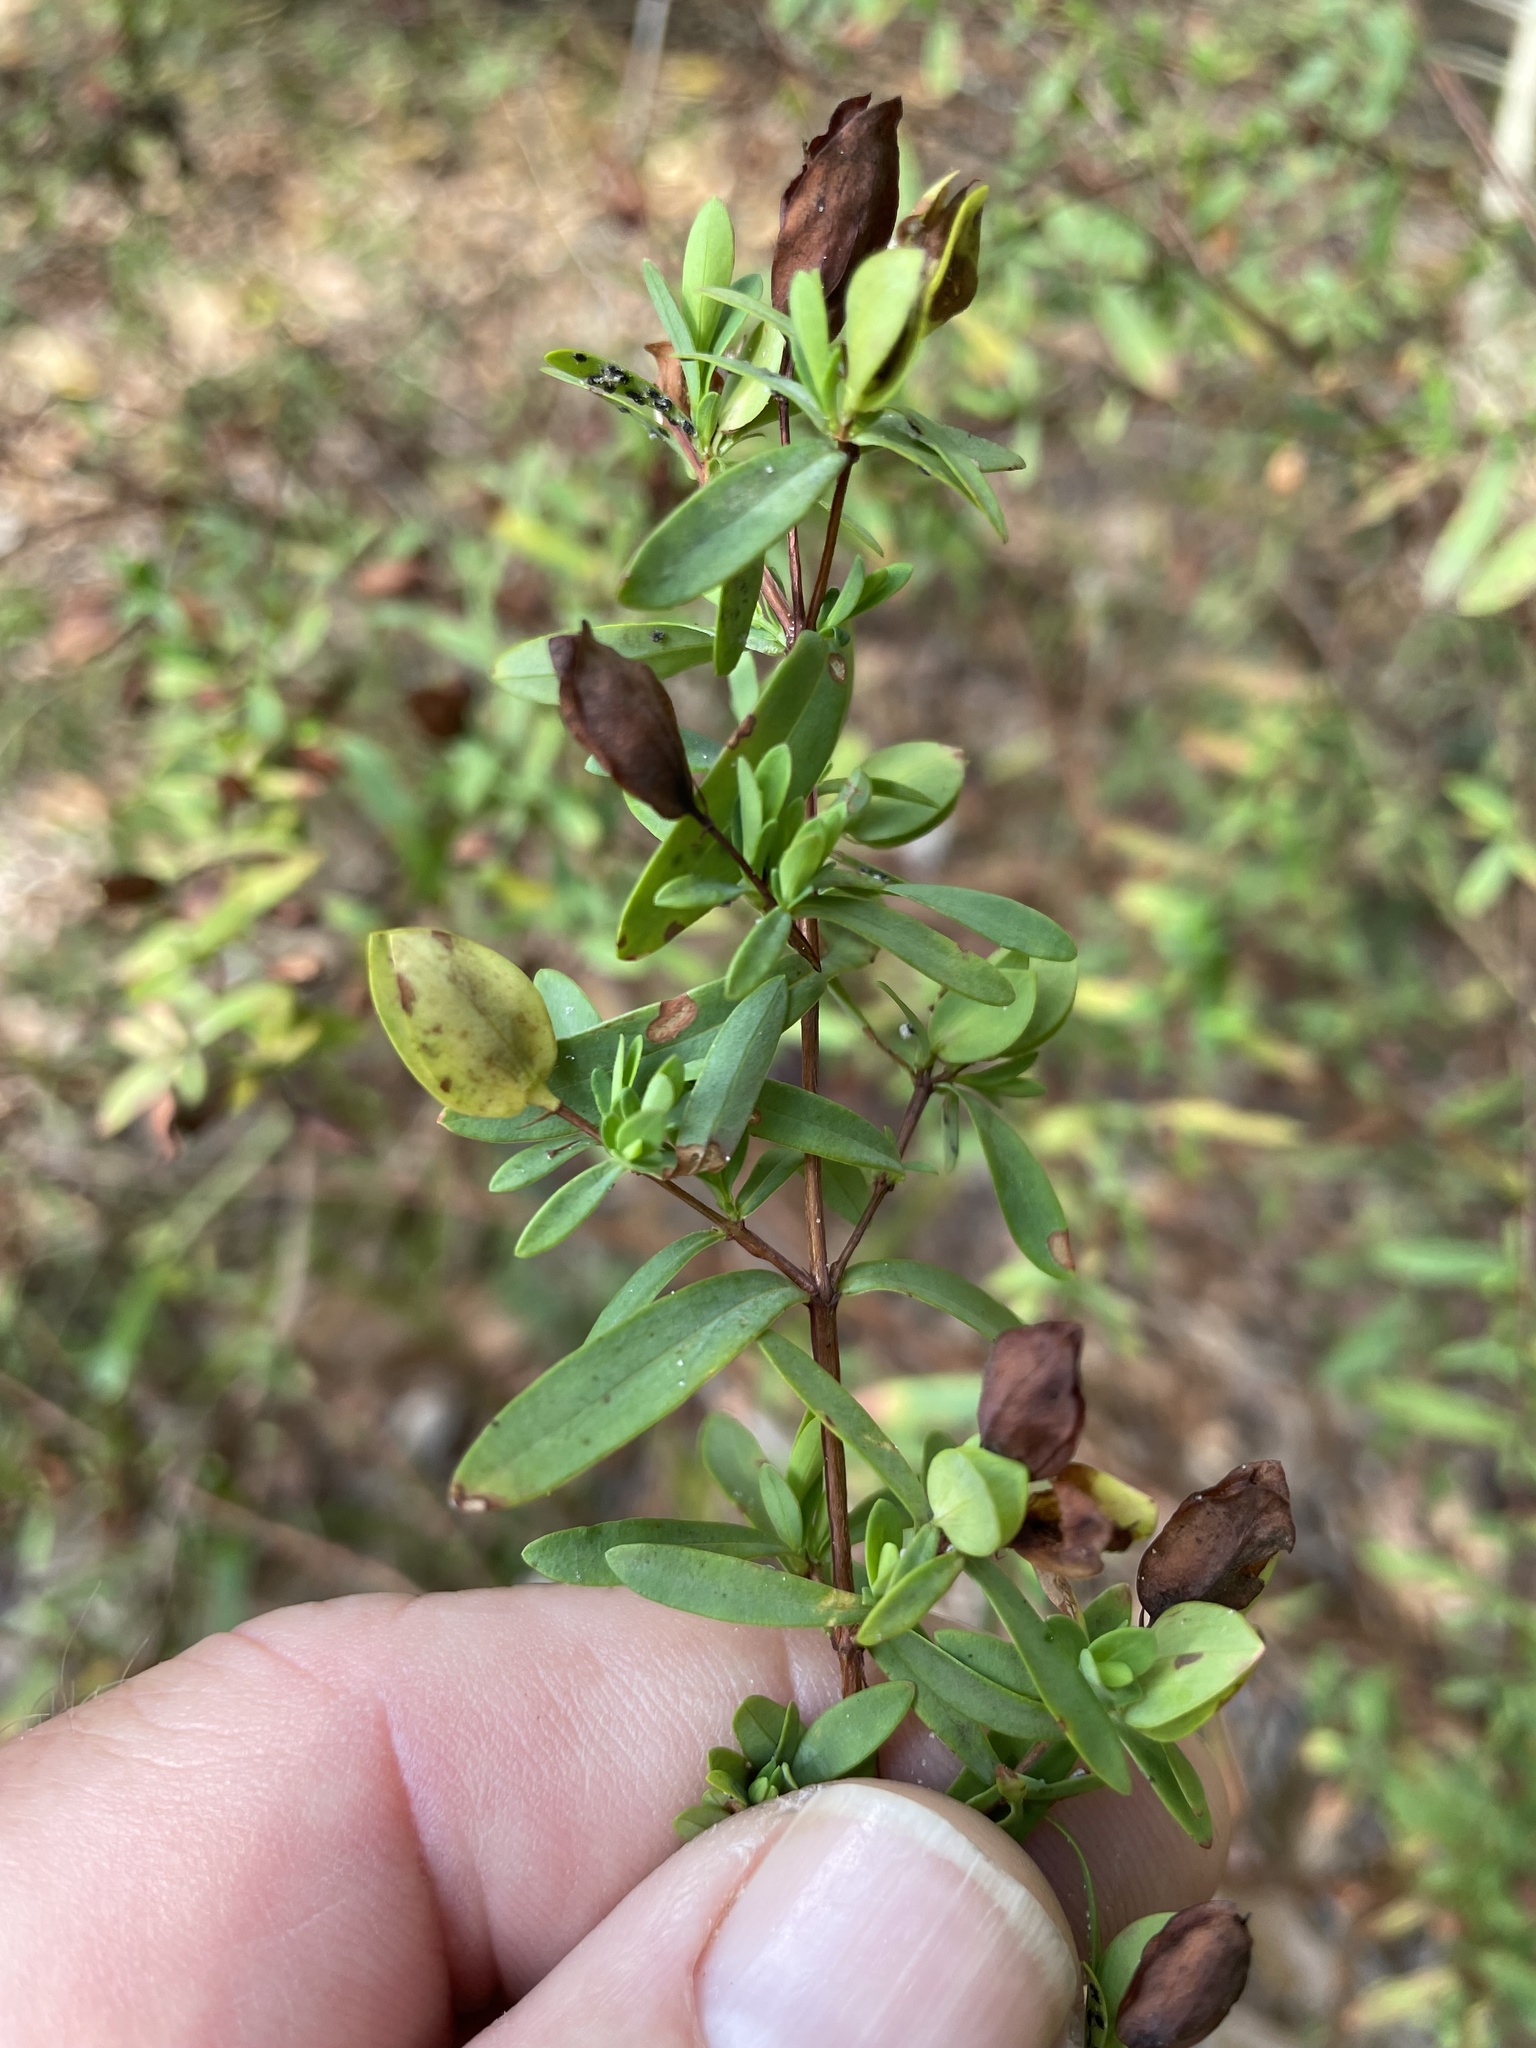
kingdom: Plantae
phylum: Tracheophyta
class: Magnoliopsida
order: Malpighiales
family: Hypericaceae
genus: Hypericum
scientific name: Hypericum hypericoides
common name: St. andrew's cross
